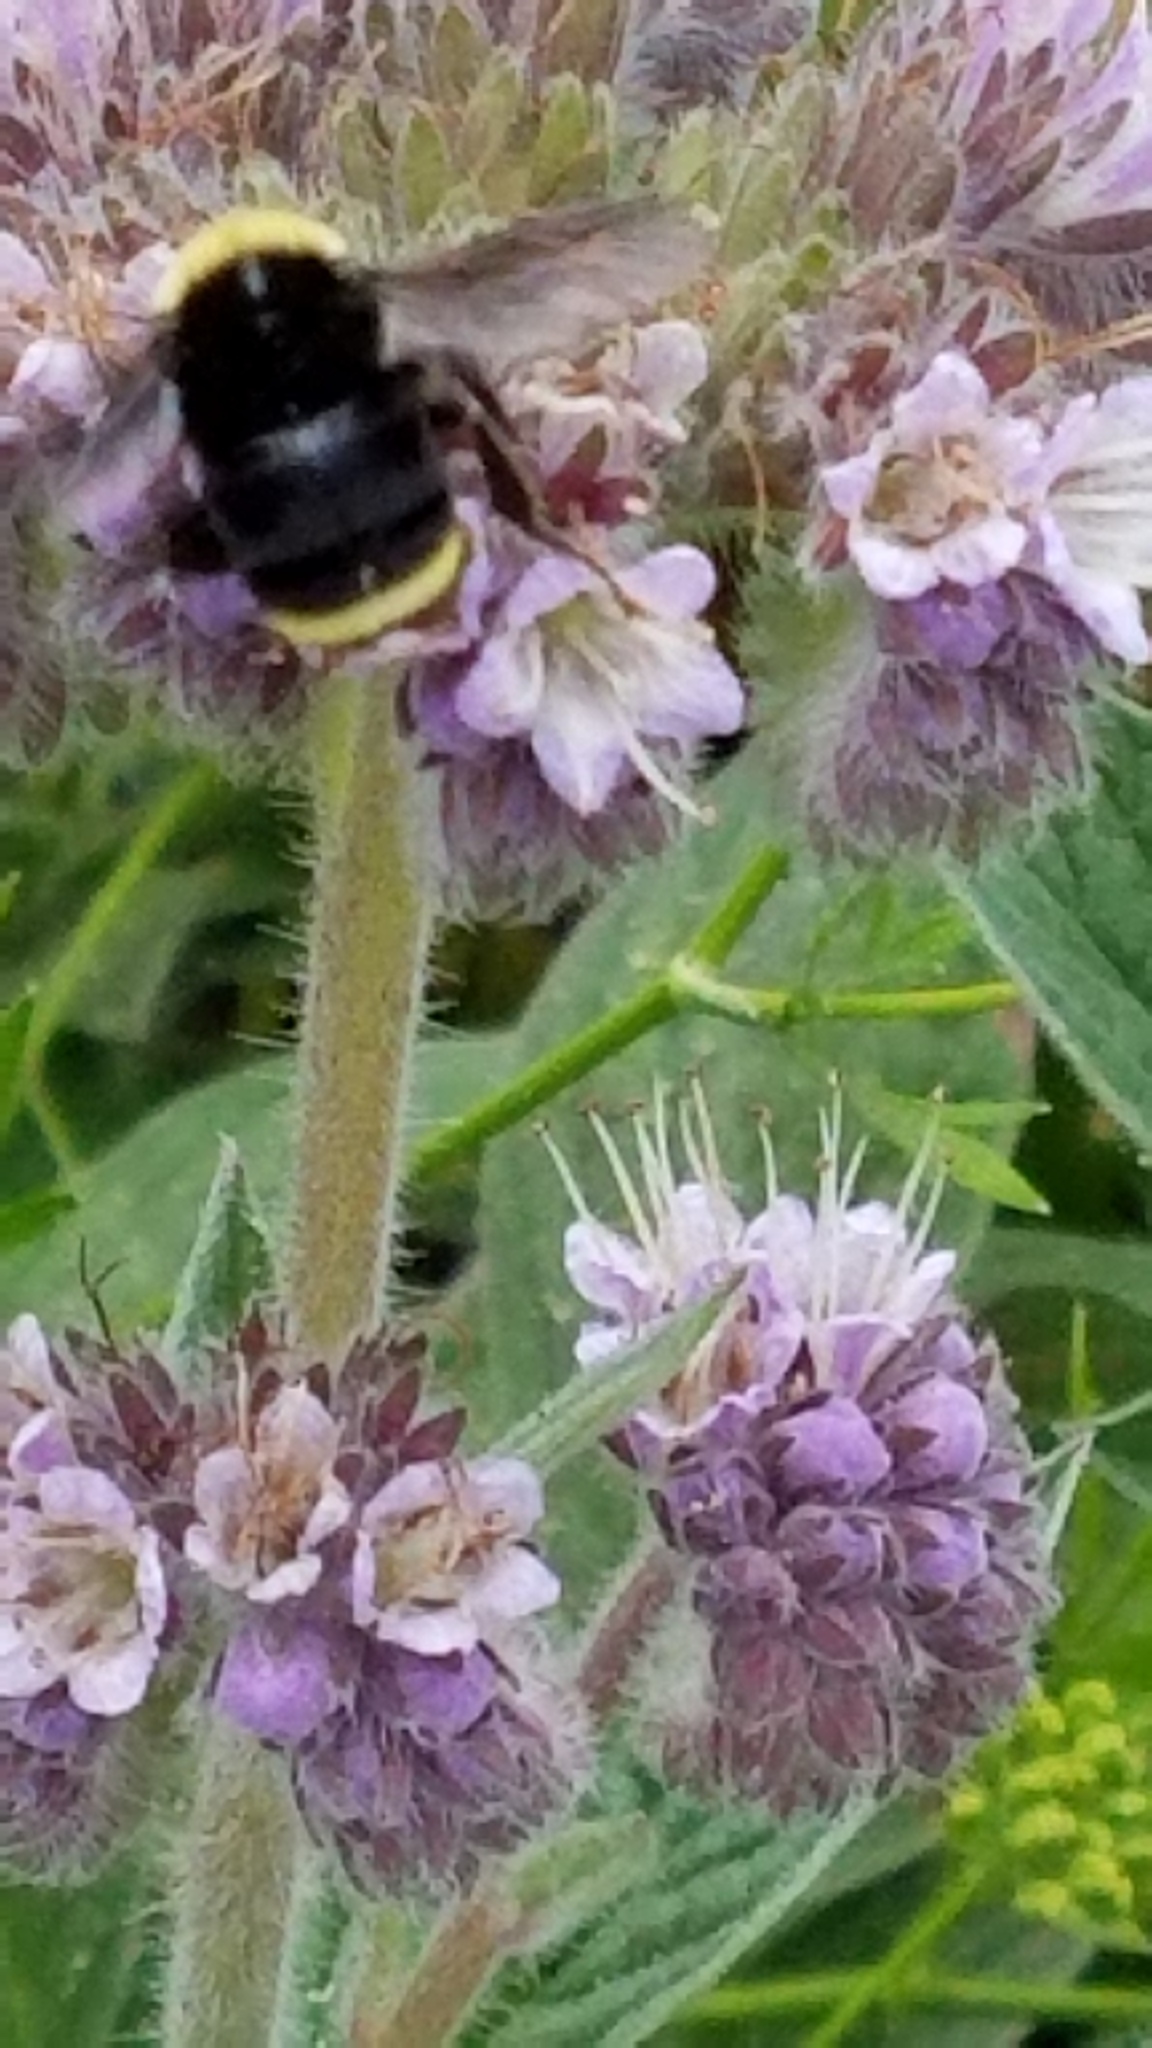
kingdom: Animalia
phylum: Arthropoda
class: Insecta
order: Hymenoptera
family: Apidae
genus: Pyrobombus
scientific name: Pyrobombus
